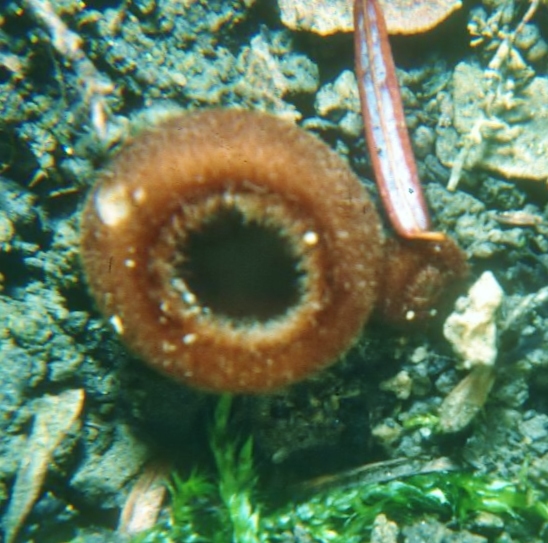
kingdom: Fungi
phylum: Ascomycota
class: Pezizomycetes
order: Pezizales
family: Pyronemataceae
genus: Humaria
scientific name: Humaria hemisphaerica
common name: Glazed cup
